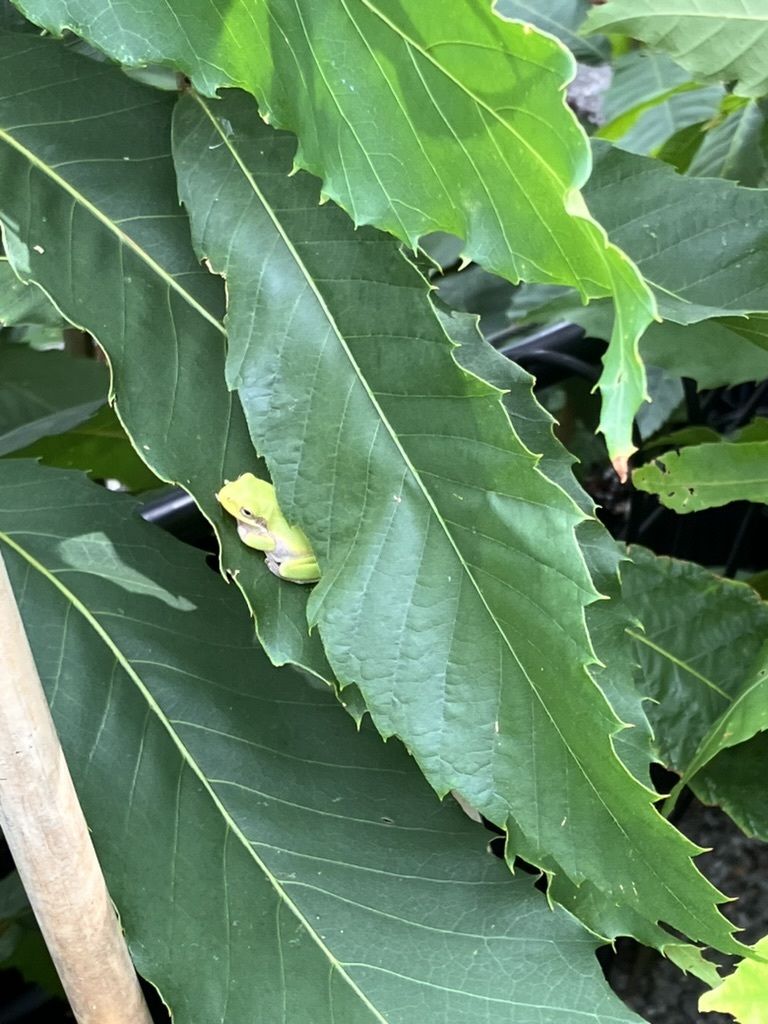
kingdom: Animalia
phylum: Chordata
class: Amphibia
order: Anura
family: Hylidae
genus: Dryophytes
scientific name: Dryophytes squirellus
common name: Squirrel treefrog
